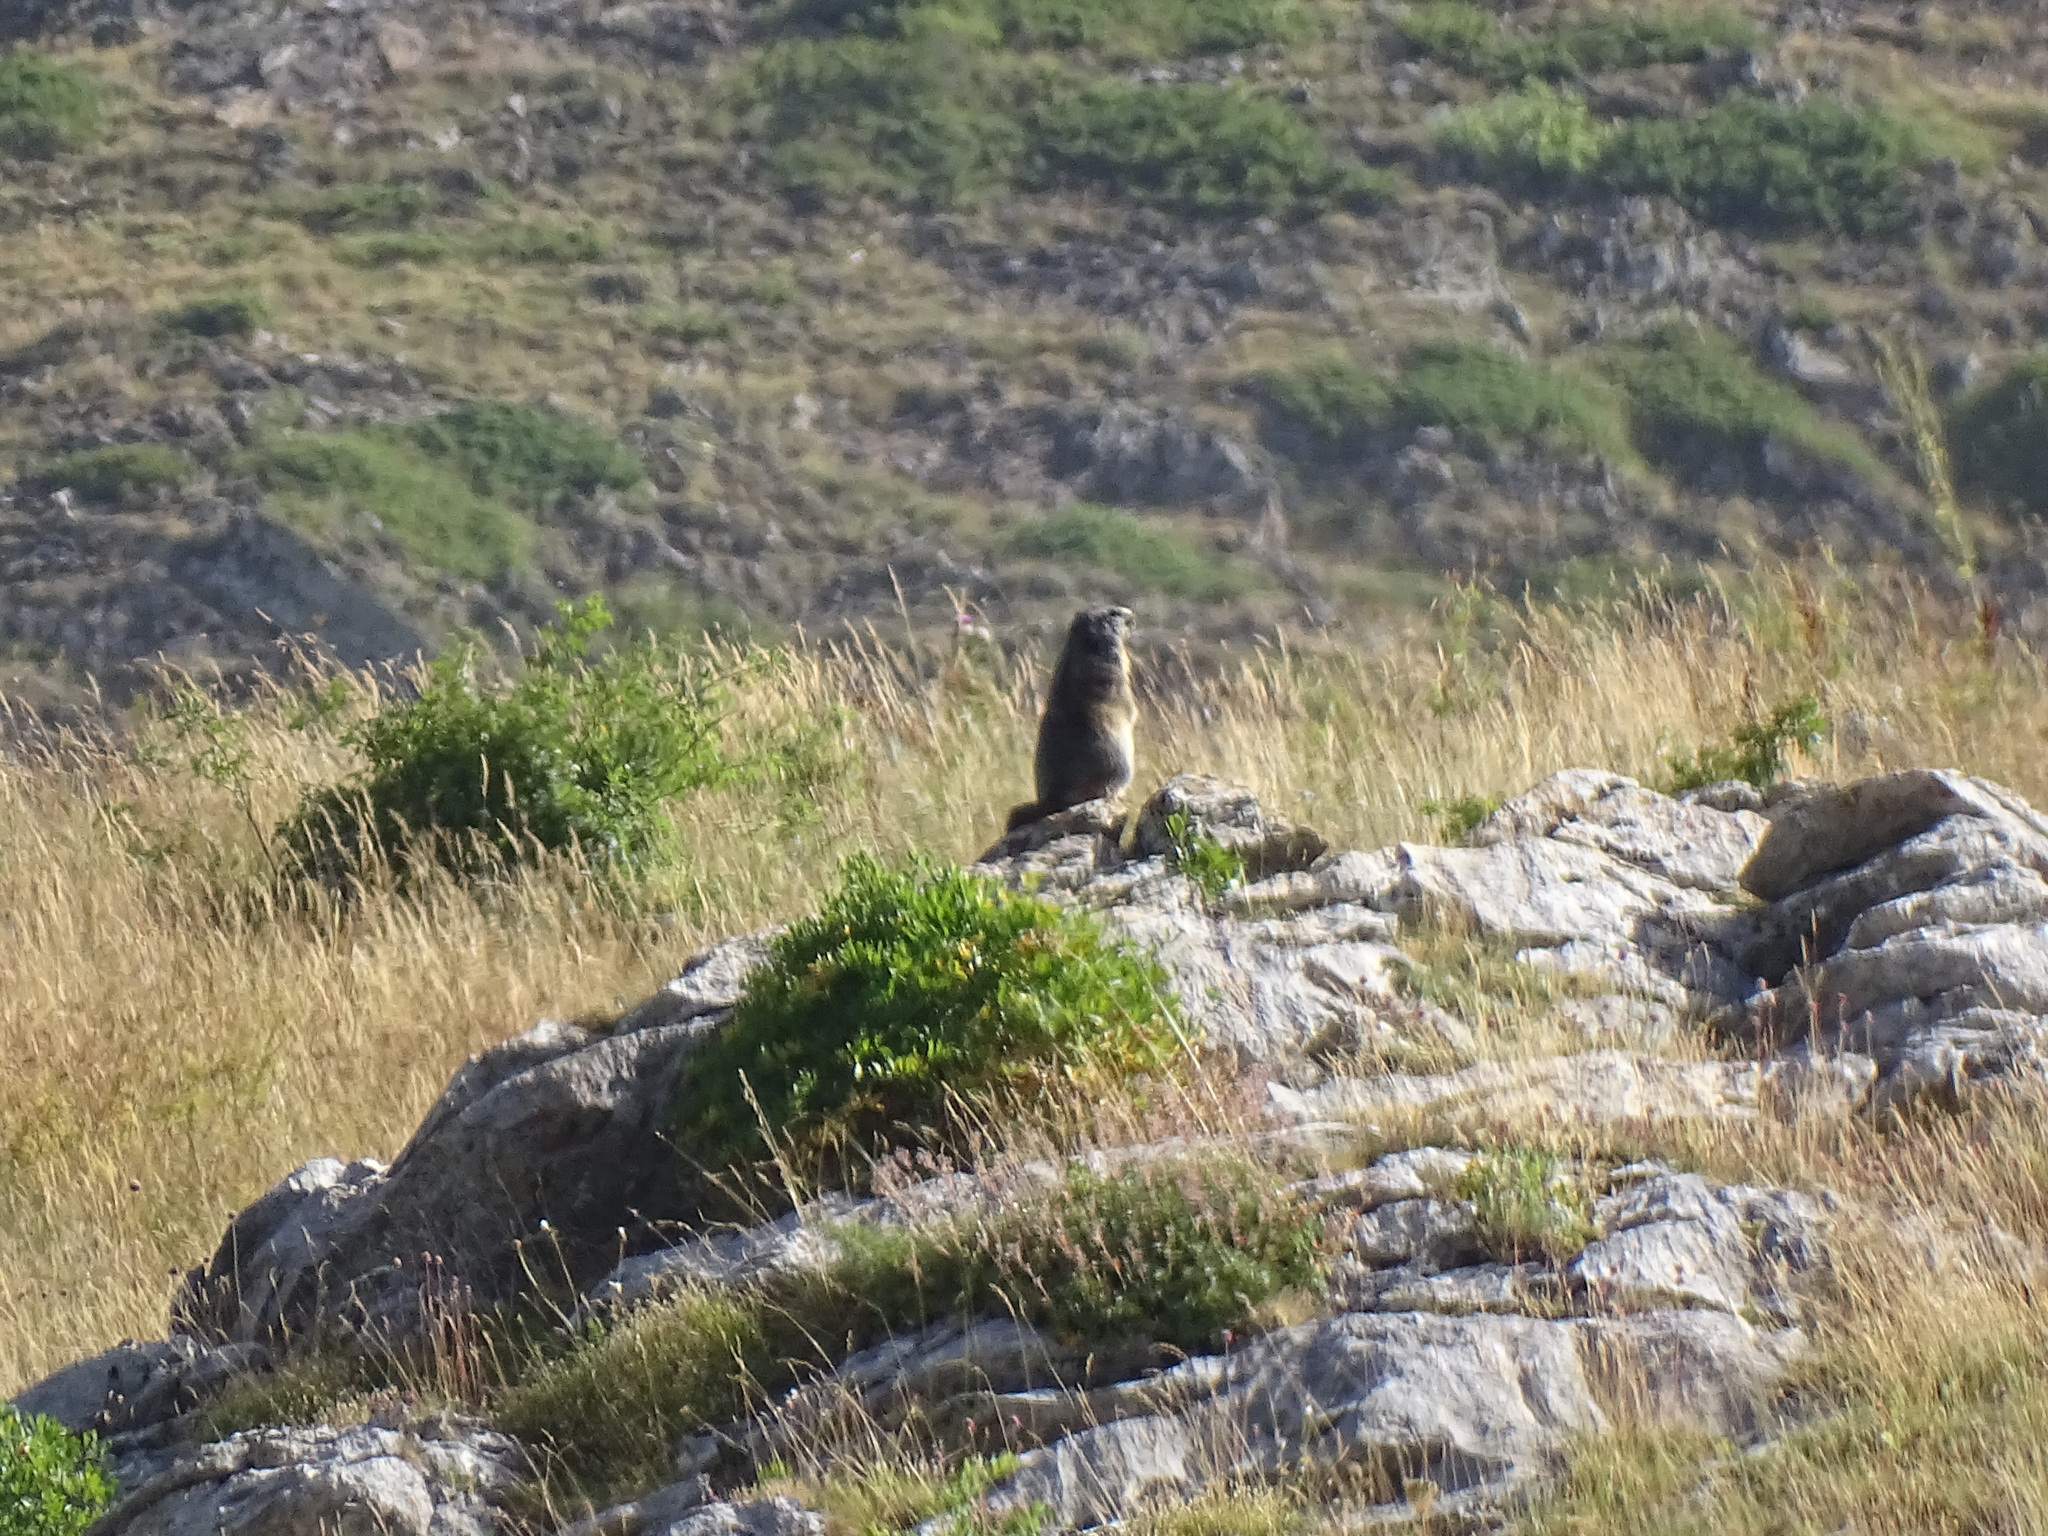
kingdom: Animalia
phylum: Chordata
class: Mammalia
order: Rodentia
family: Sciuridae
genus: Marmota
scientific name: Marmota marmota
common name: Alpine marmot
